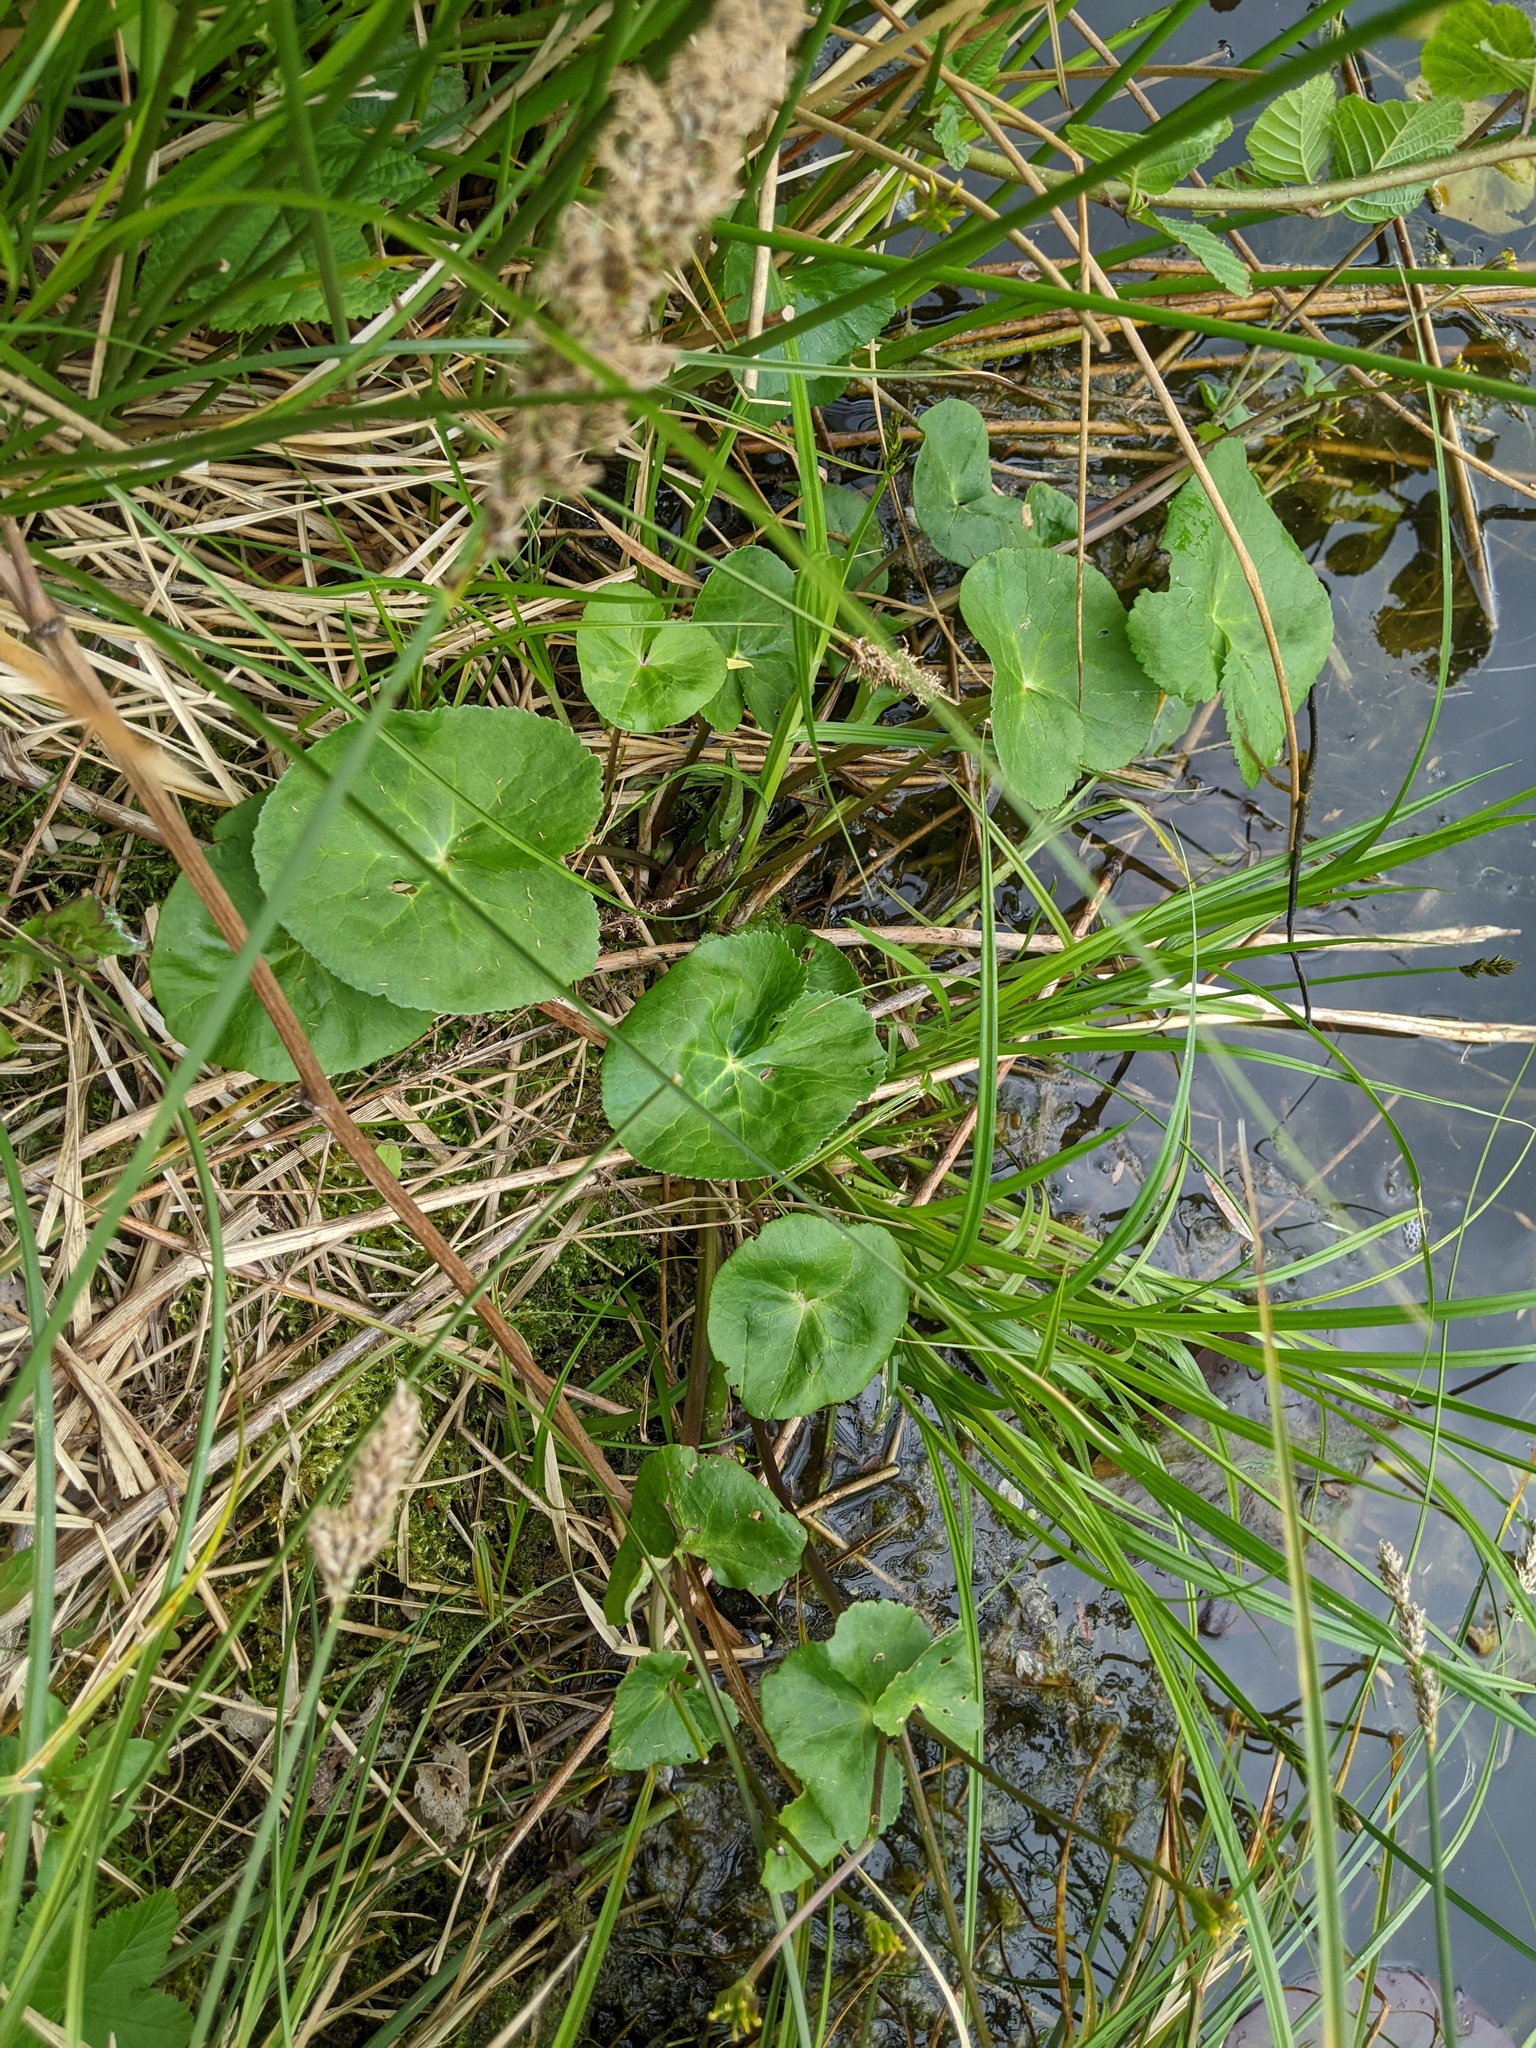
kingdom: Plantae
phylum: Tracheophyta
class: Magnoliopsida
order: Ranunculales
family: Ranunculaceae
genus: Caltha
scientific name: Caltha palustris
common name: Marsh marigold
